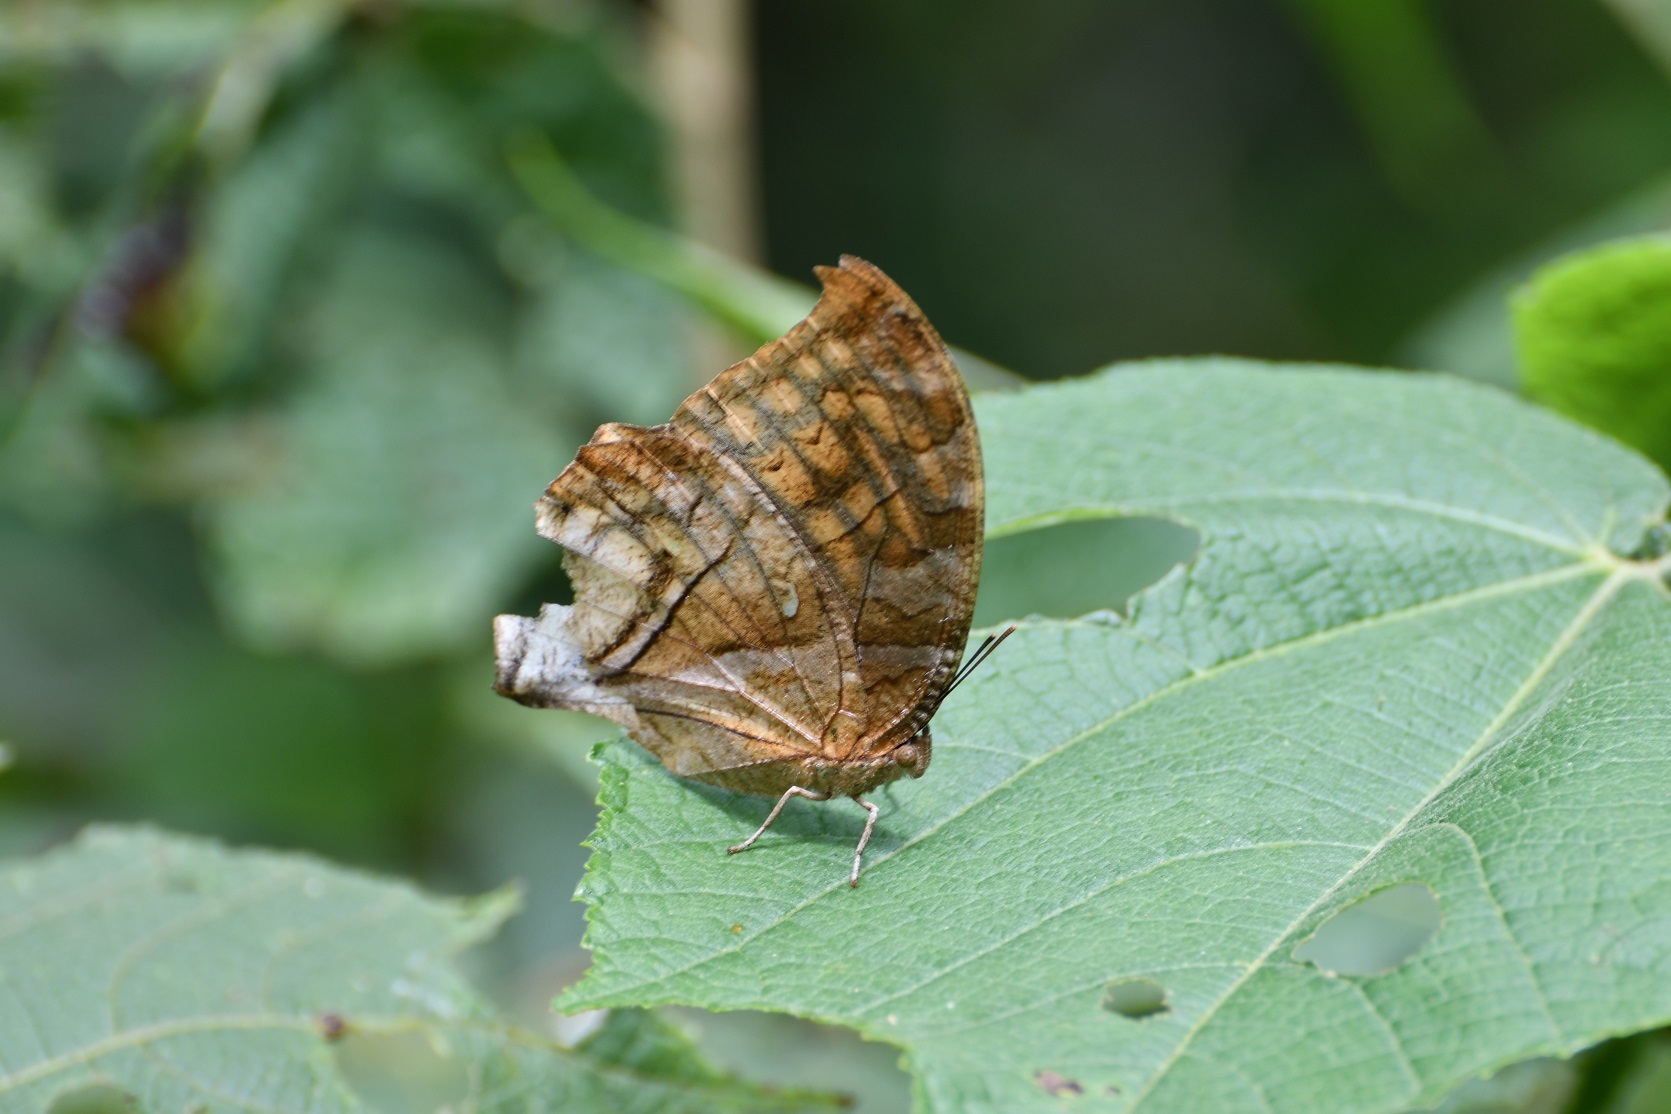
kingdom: Animalia
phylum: Arthropoda
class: Insecta
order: Lepidoptera
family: Nymphalidae
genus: Consul
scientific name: Consul excellens
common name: Black-veined leafwing
